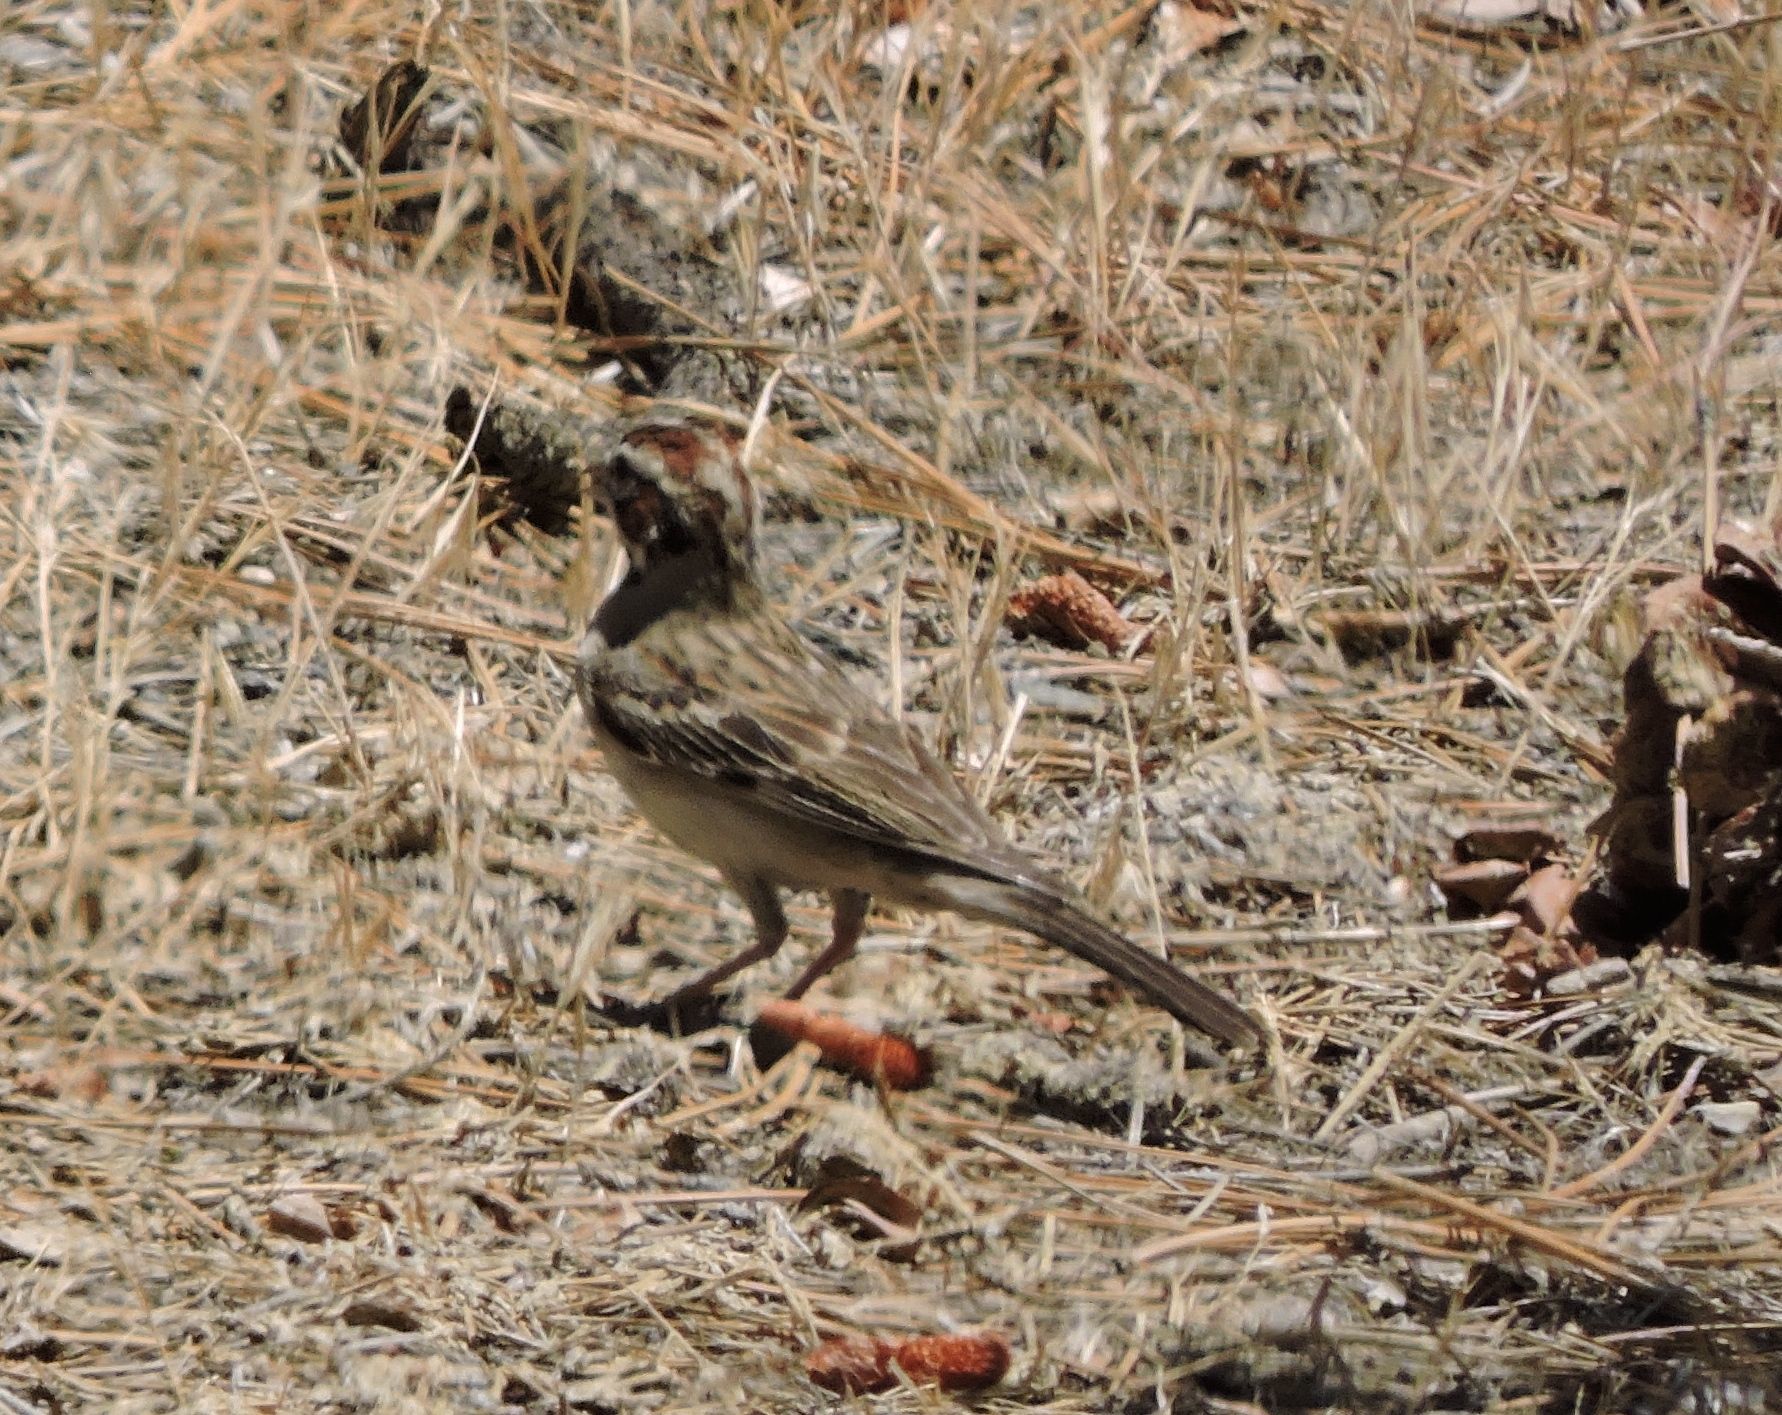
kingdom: Animalia
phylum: Chordata
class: Aves
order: Passeriformes
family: Passerellidae
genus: Chondestes
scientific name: Chondestes grammacus
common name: Lark sparrow
